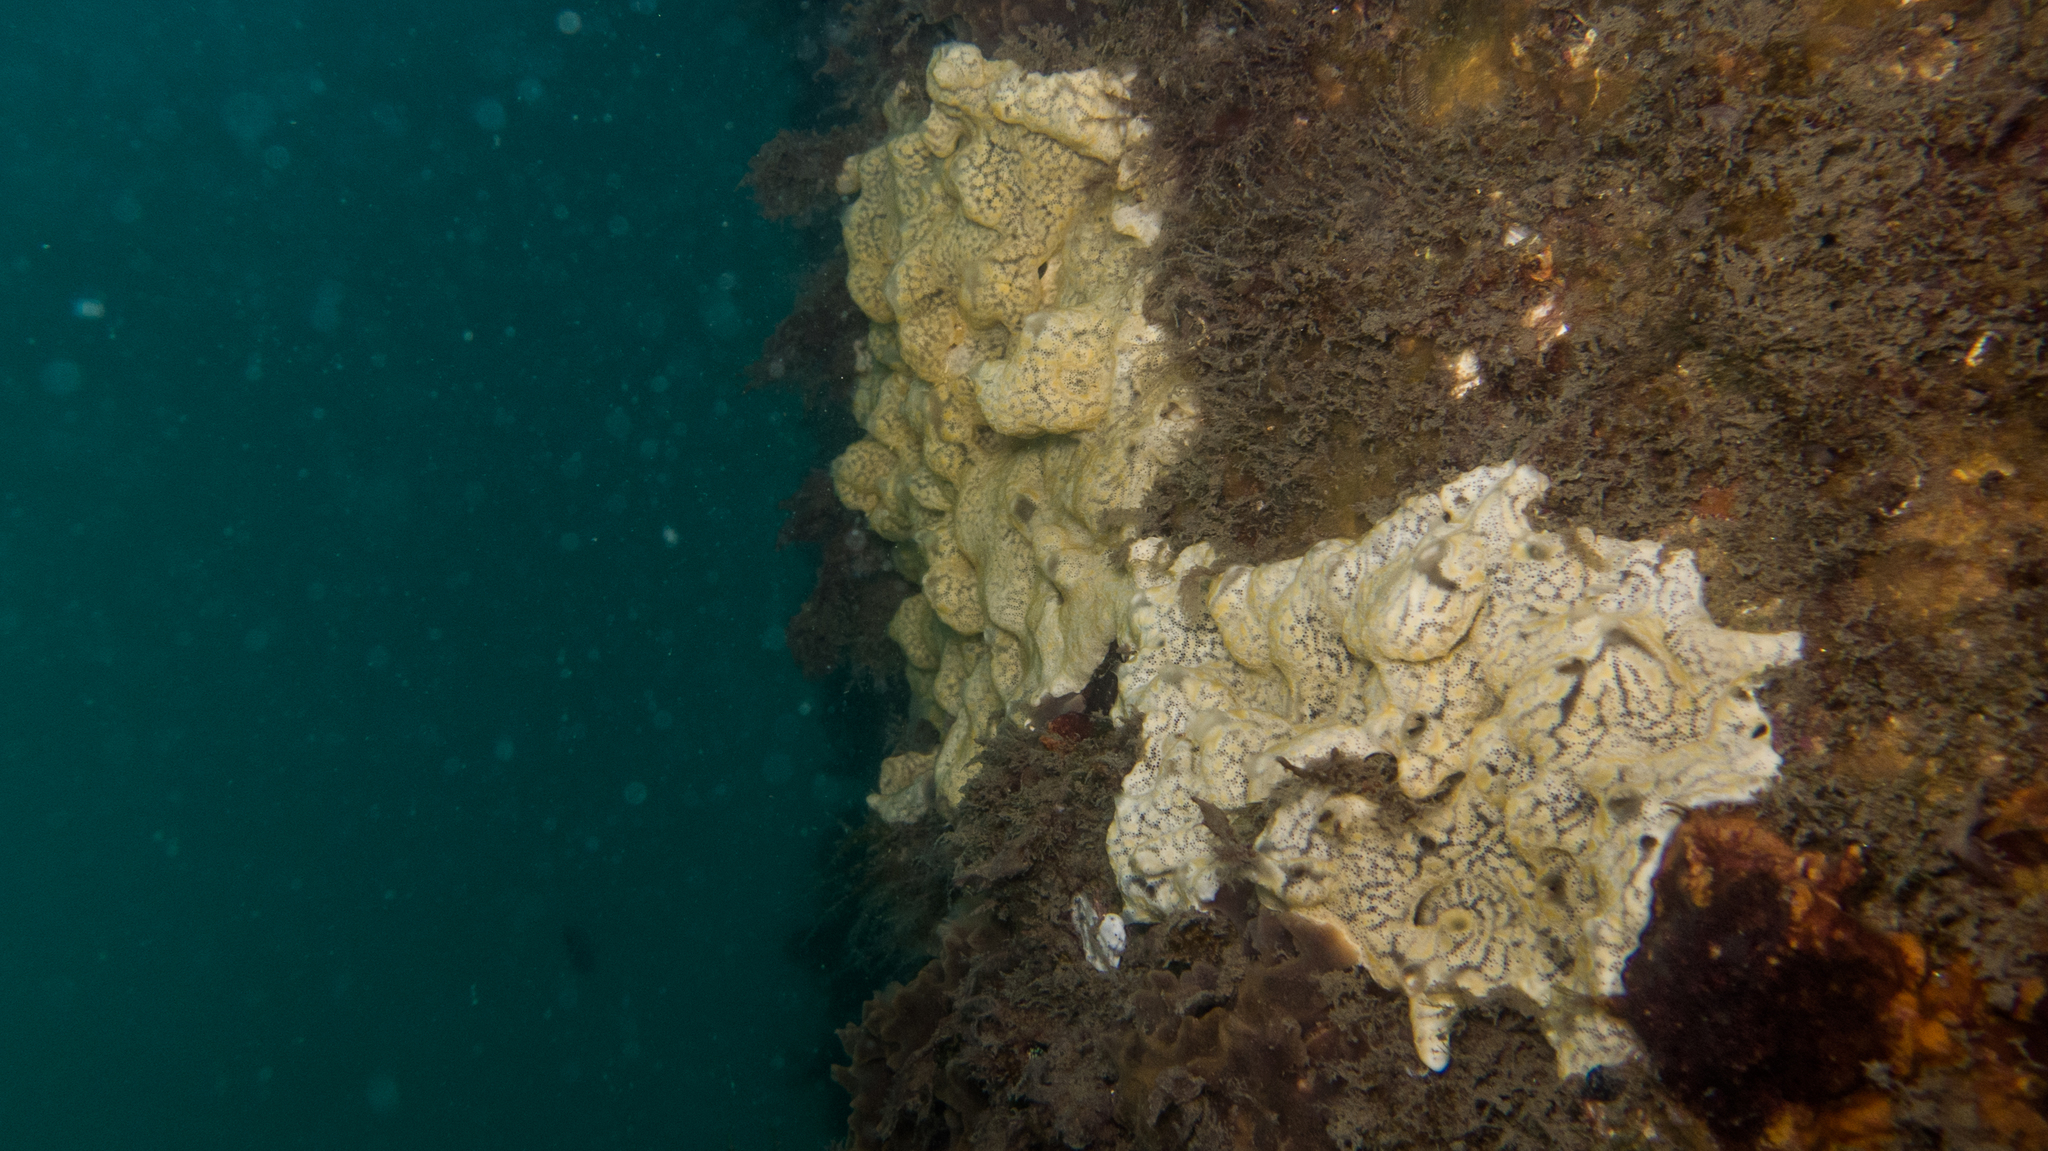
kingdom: Animalia
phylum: Chordata
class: Ascidiacea
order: Aplousobranchia
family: Didemnidae
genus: Didemnum
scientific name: Didemnum perlucidum
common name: Colonial tunicate
